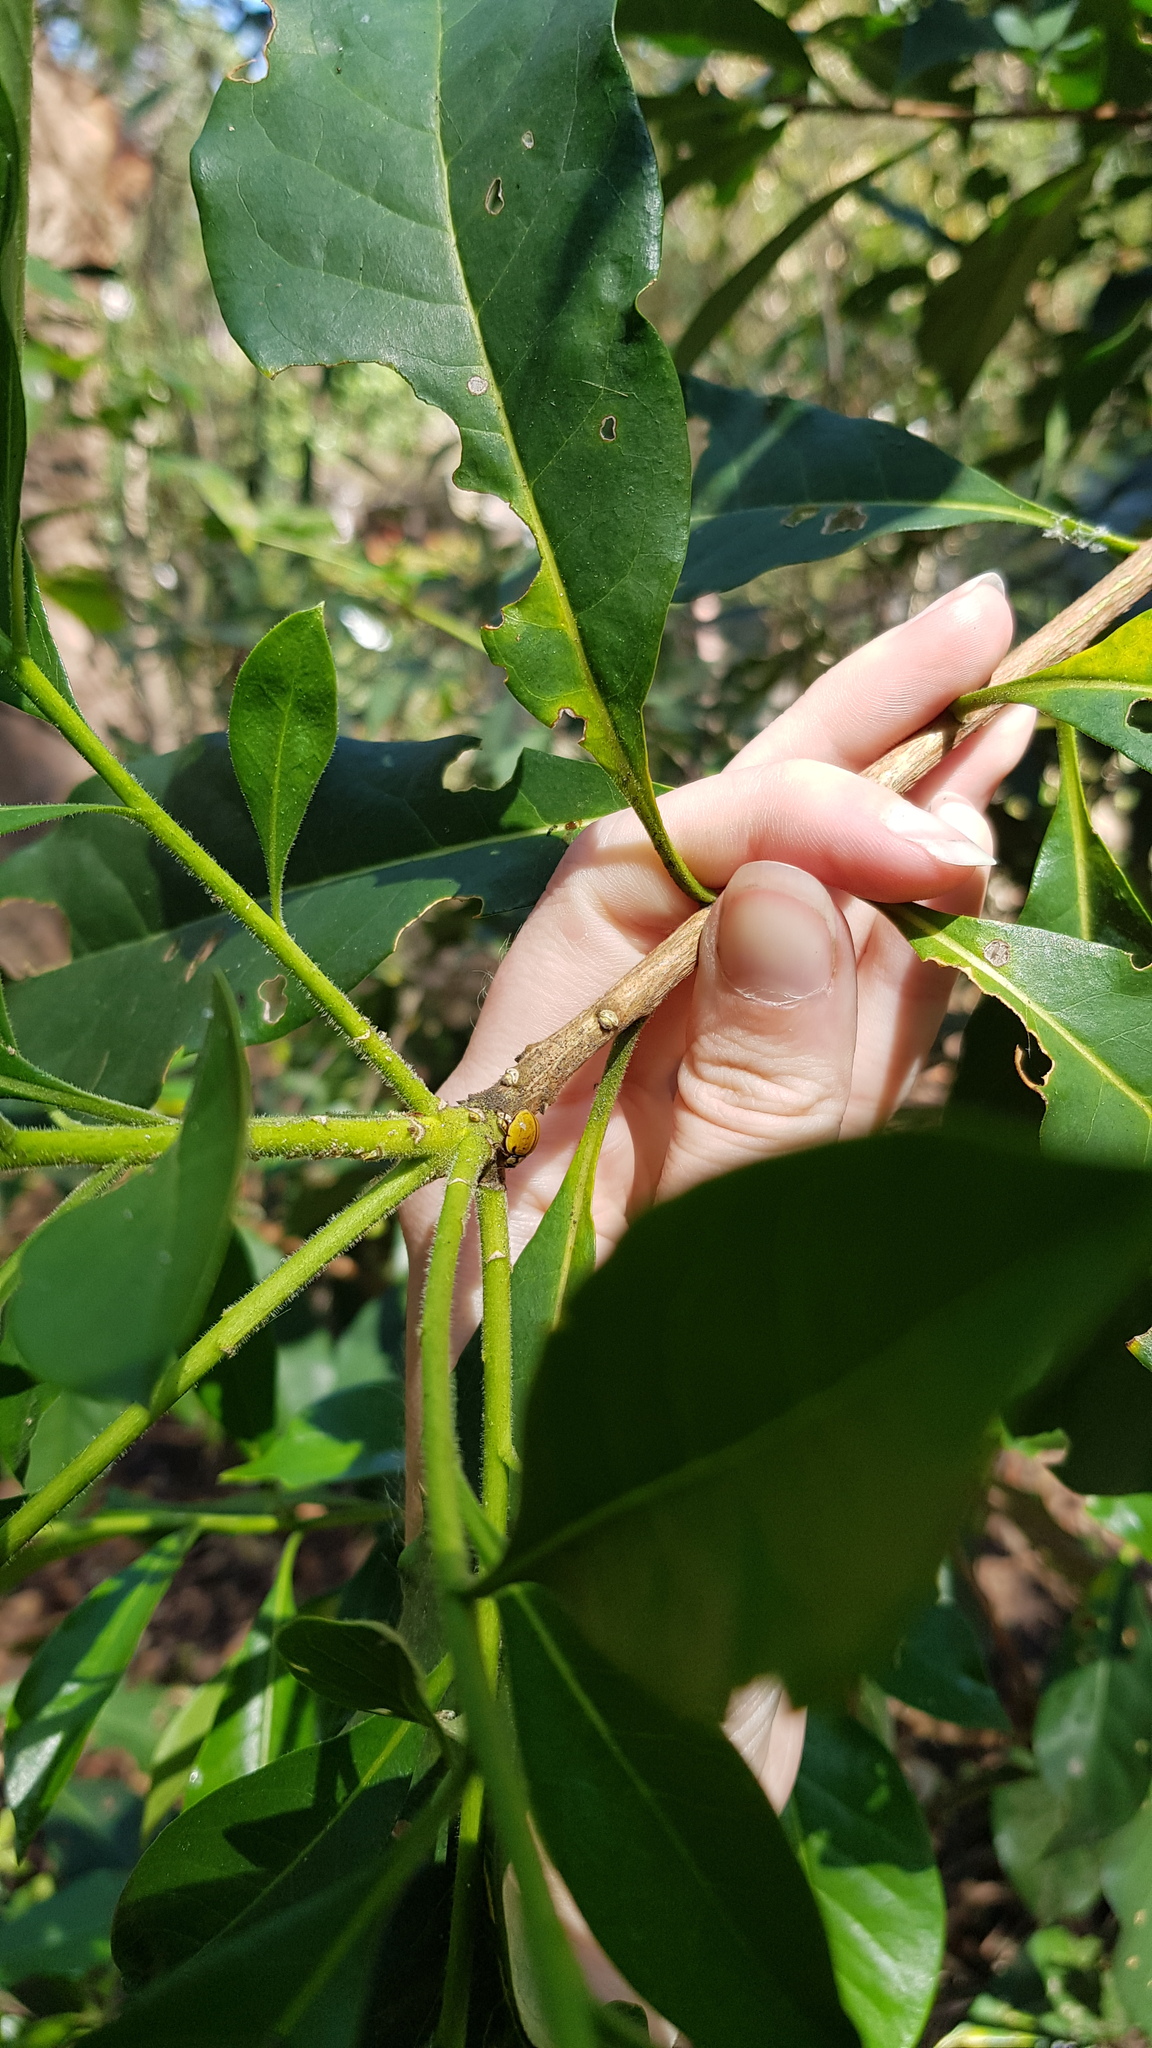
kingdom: Animalia
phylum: Arthropoda
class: Insecta
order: Coleoptera
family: Coccinellidae
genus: Harmonia
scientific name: Harmonia
